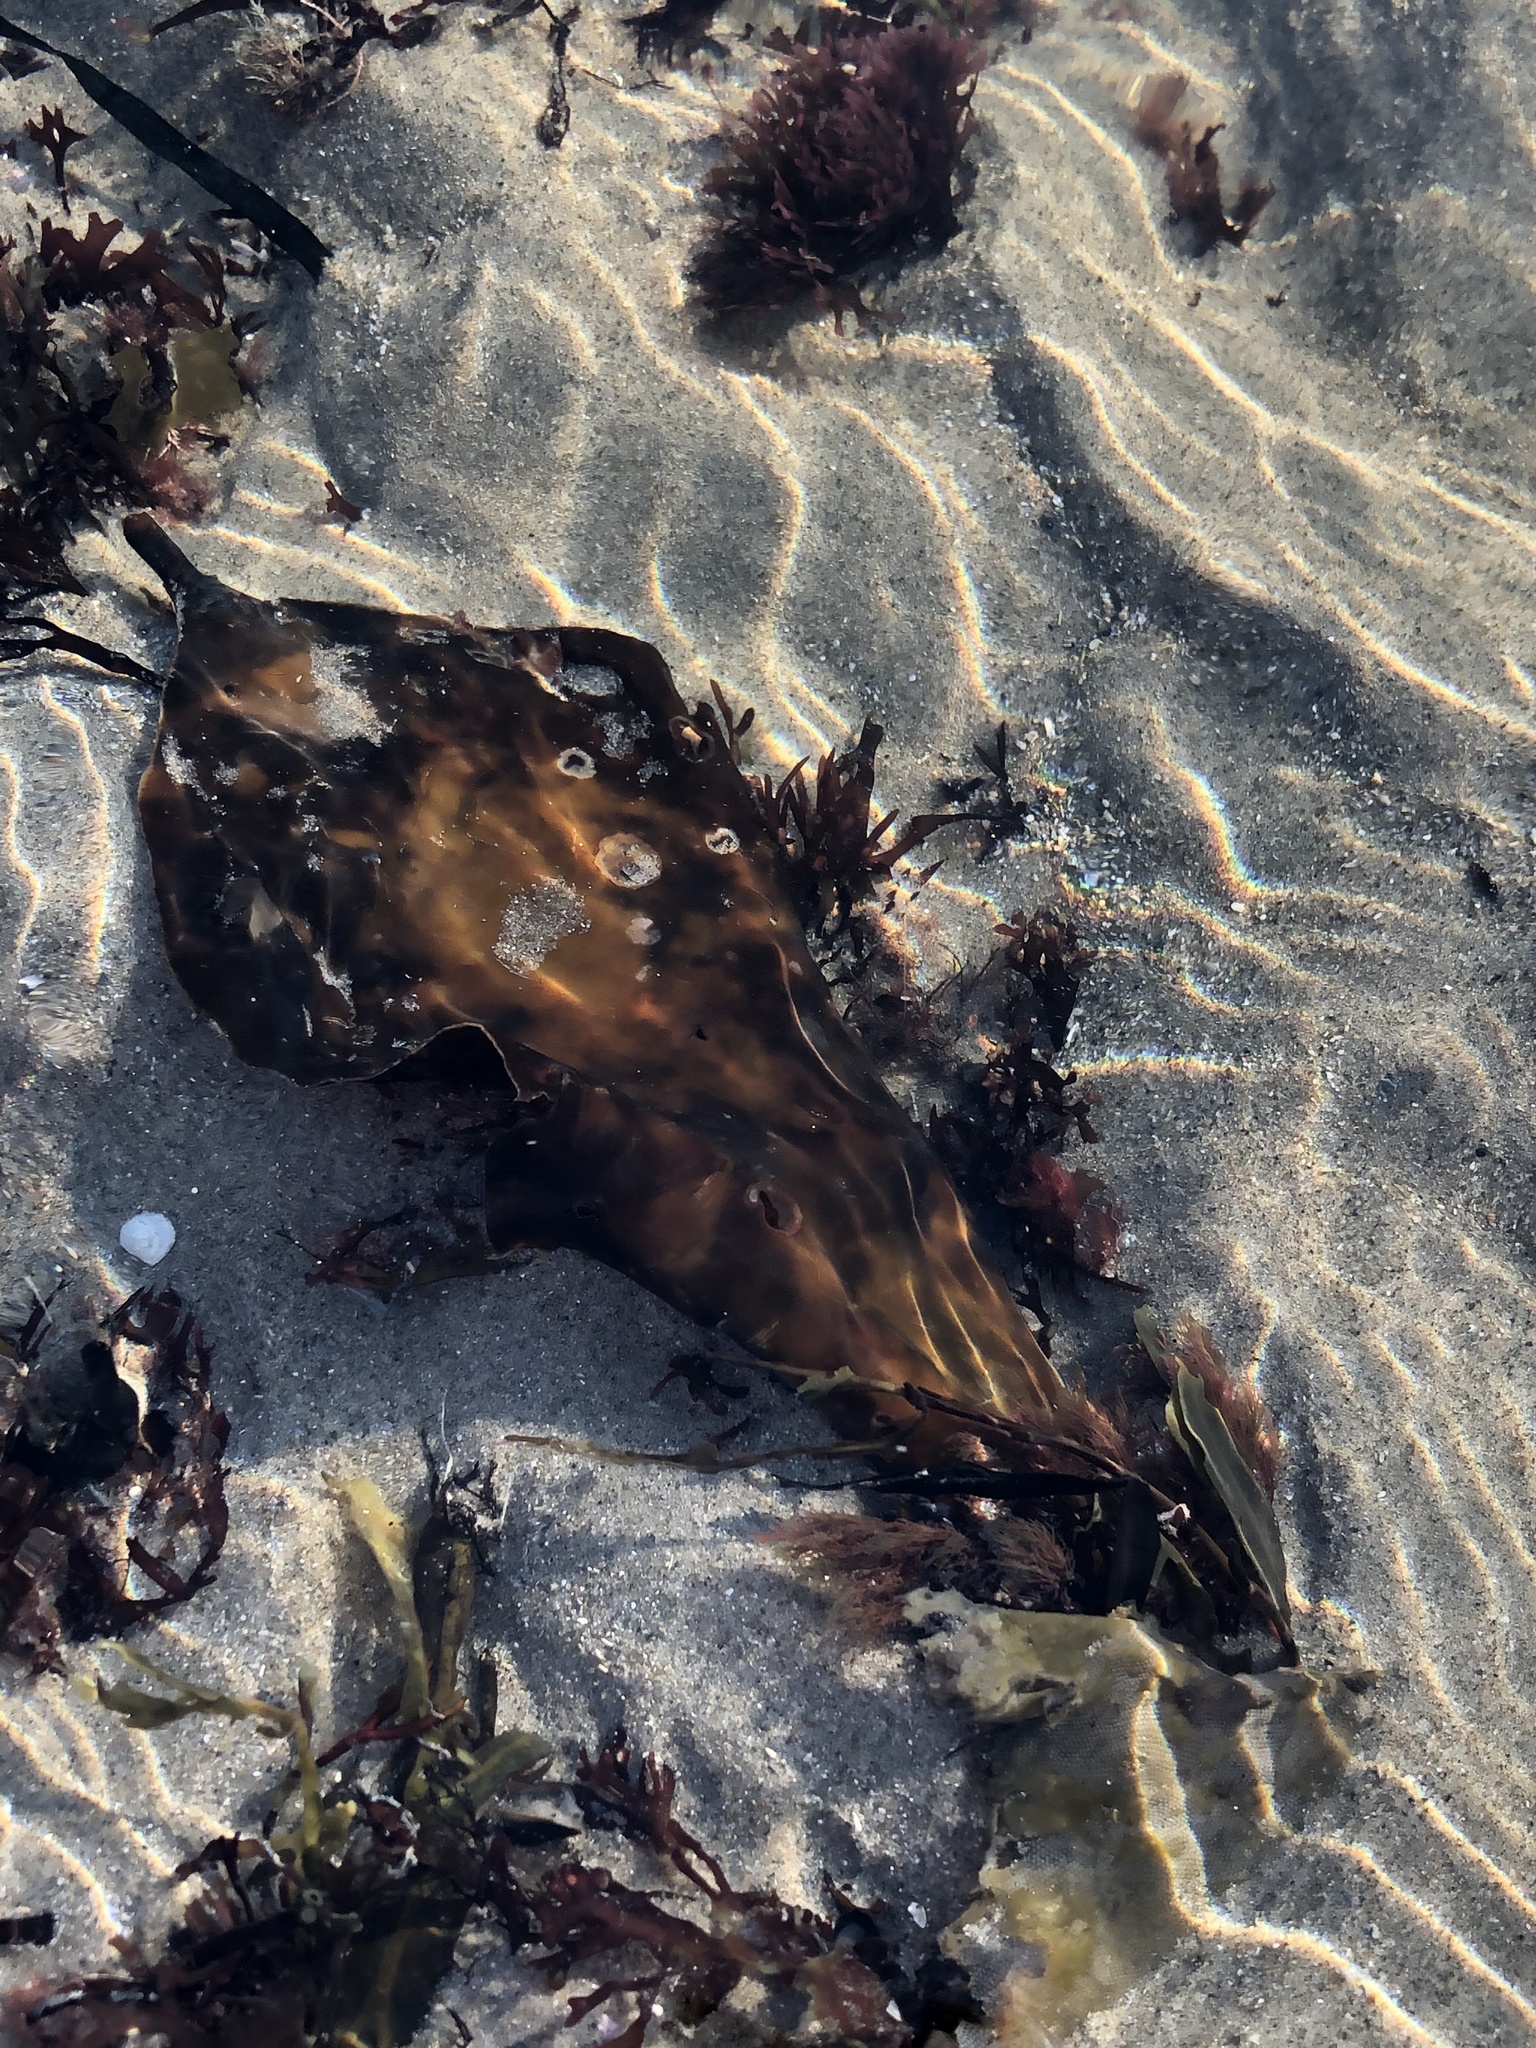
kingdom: Chromista
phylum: Ochrophyta
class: Phaeophyceae
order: Laminariales
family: Laminariaceae
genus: Saccharina
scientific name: Saccharina latissima
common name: Poor man's weather glass
